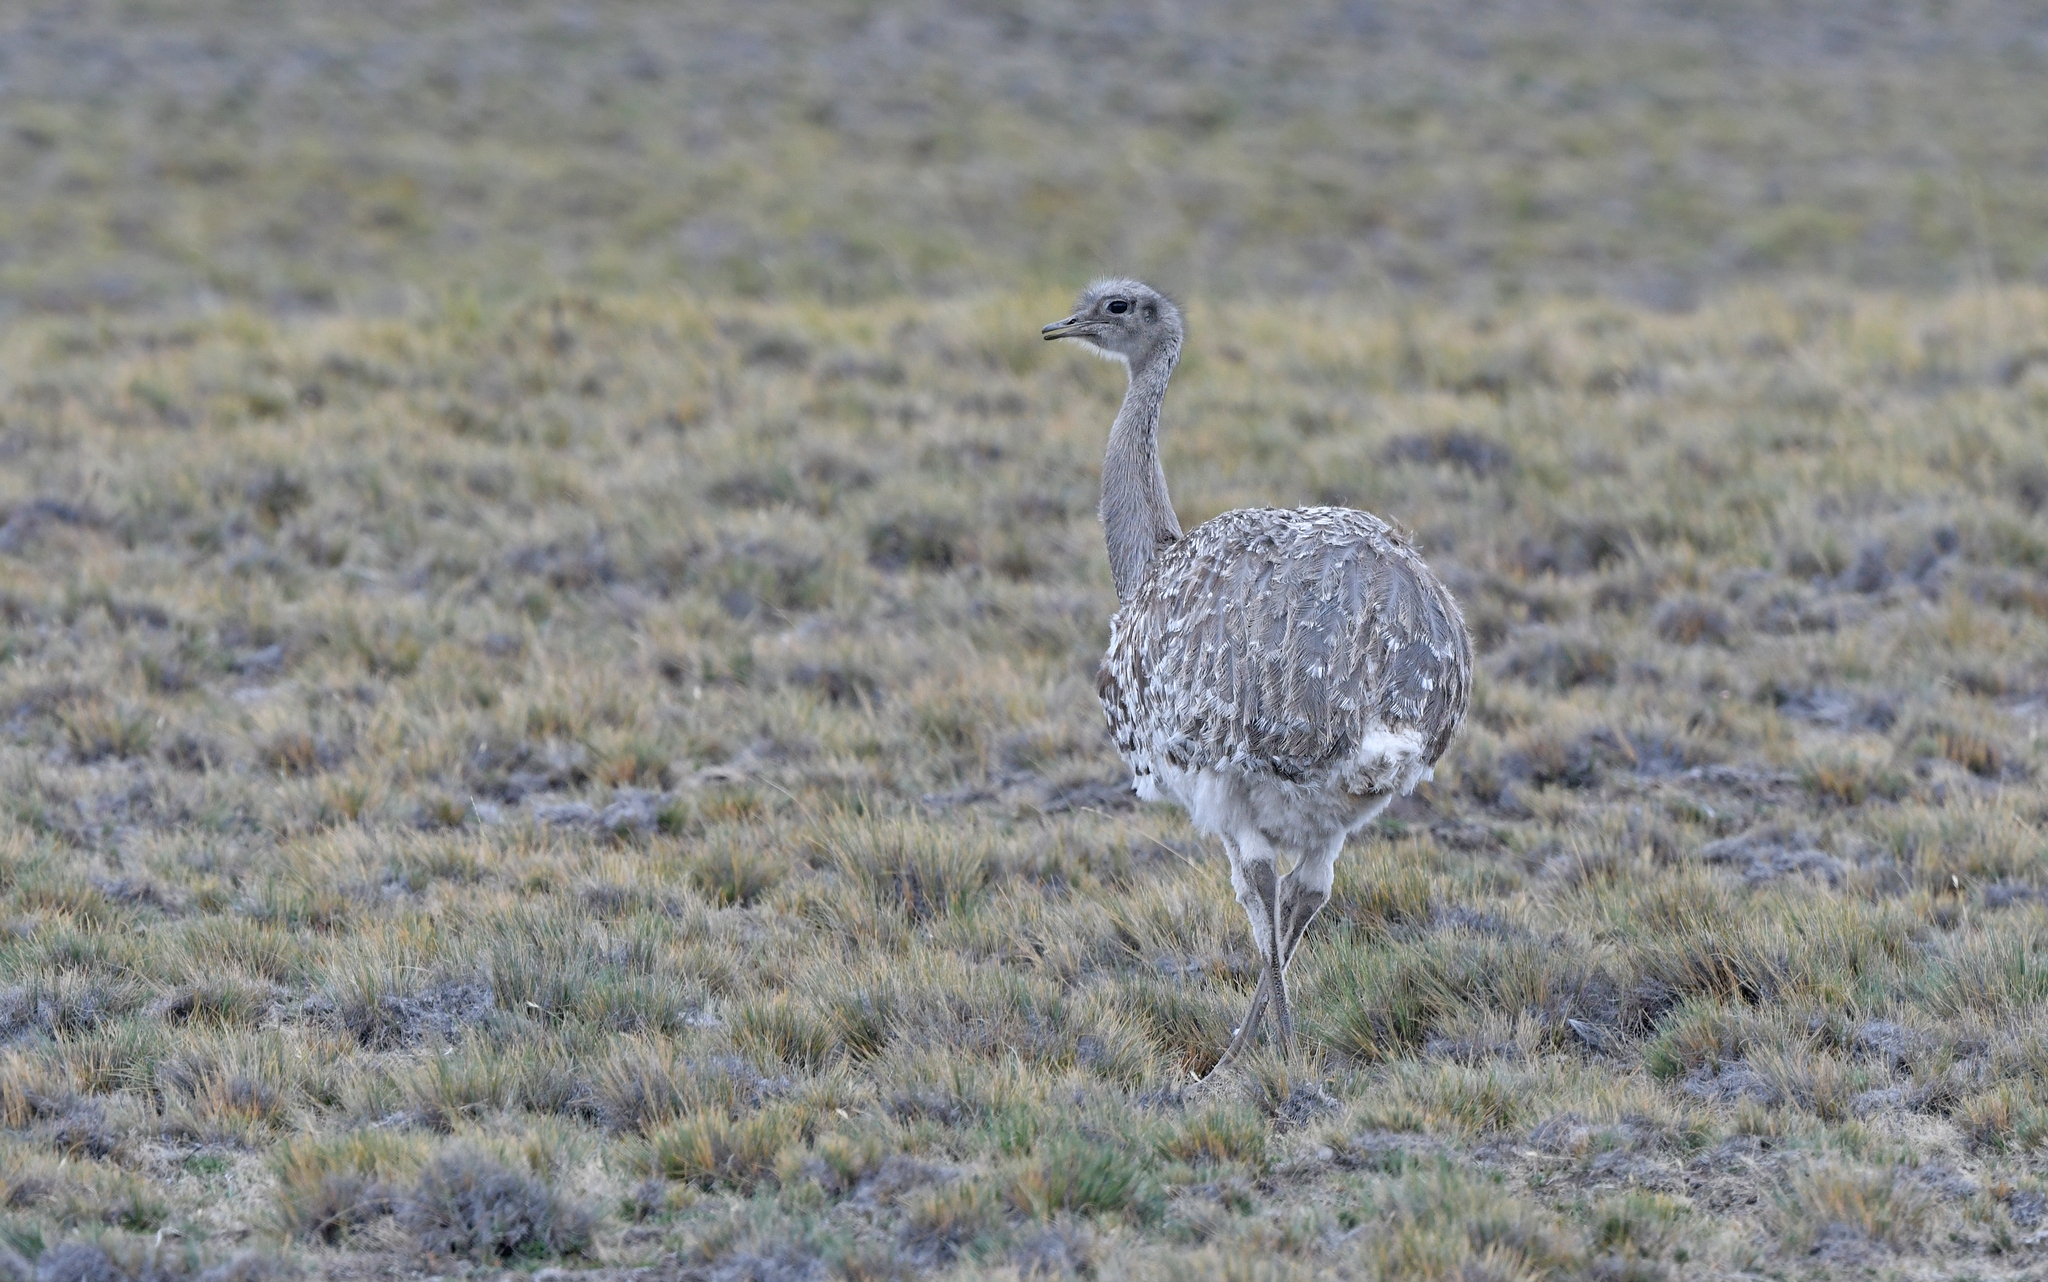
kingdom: Animalia
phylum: Chordata
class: Aves
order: Rheiformes
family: Rheidae
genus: Rhea
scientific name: Rhea pennata
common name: Lesser rhea
